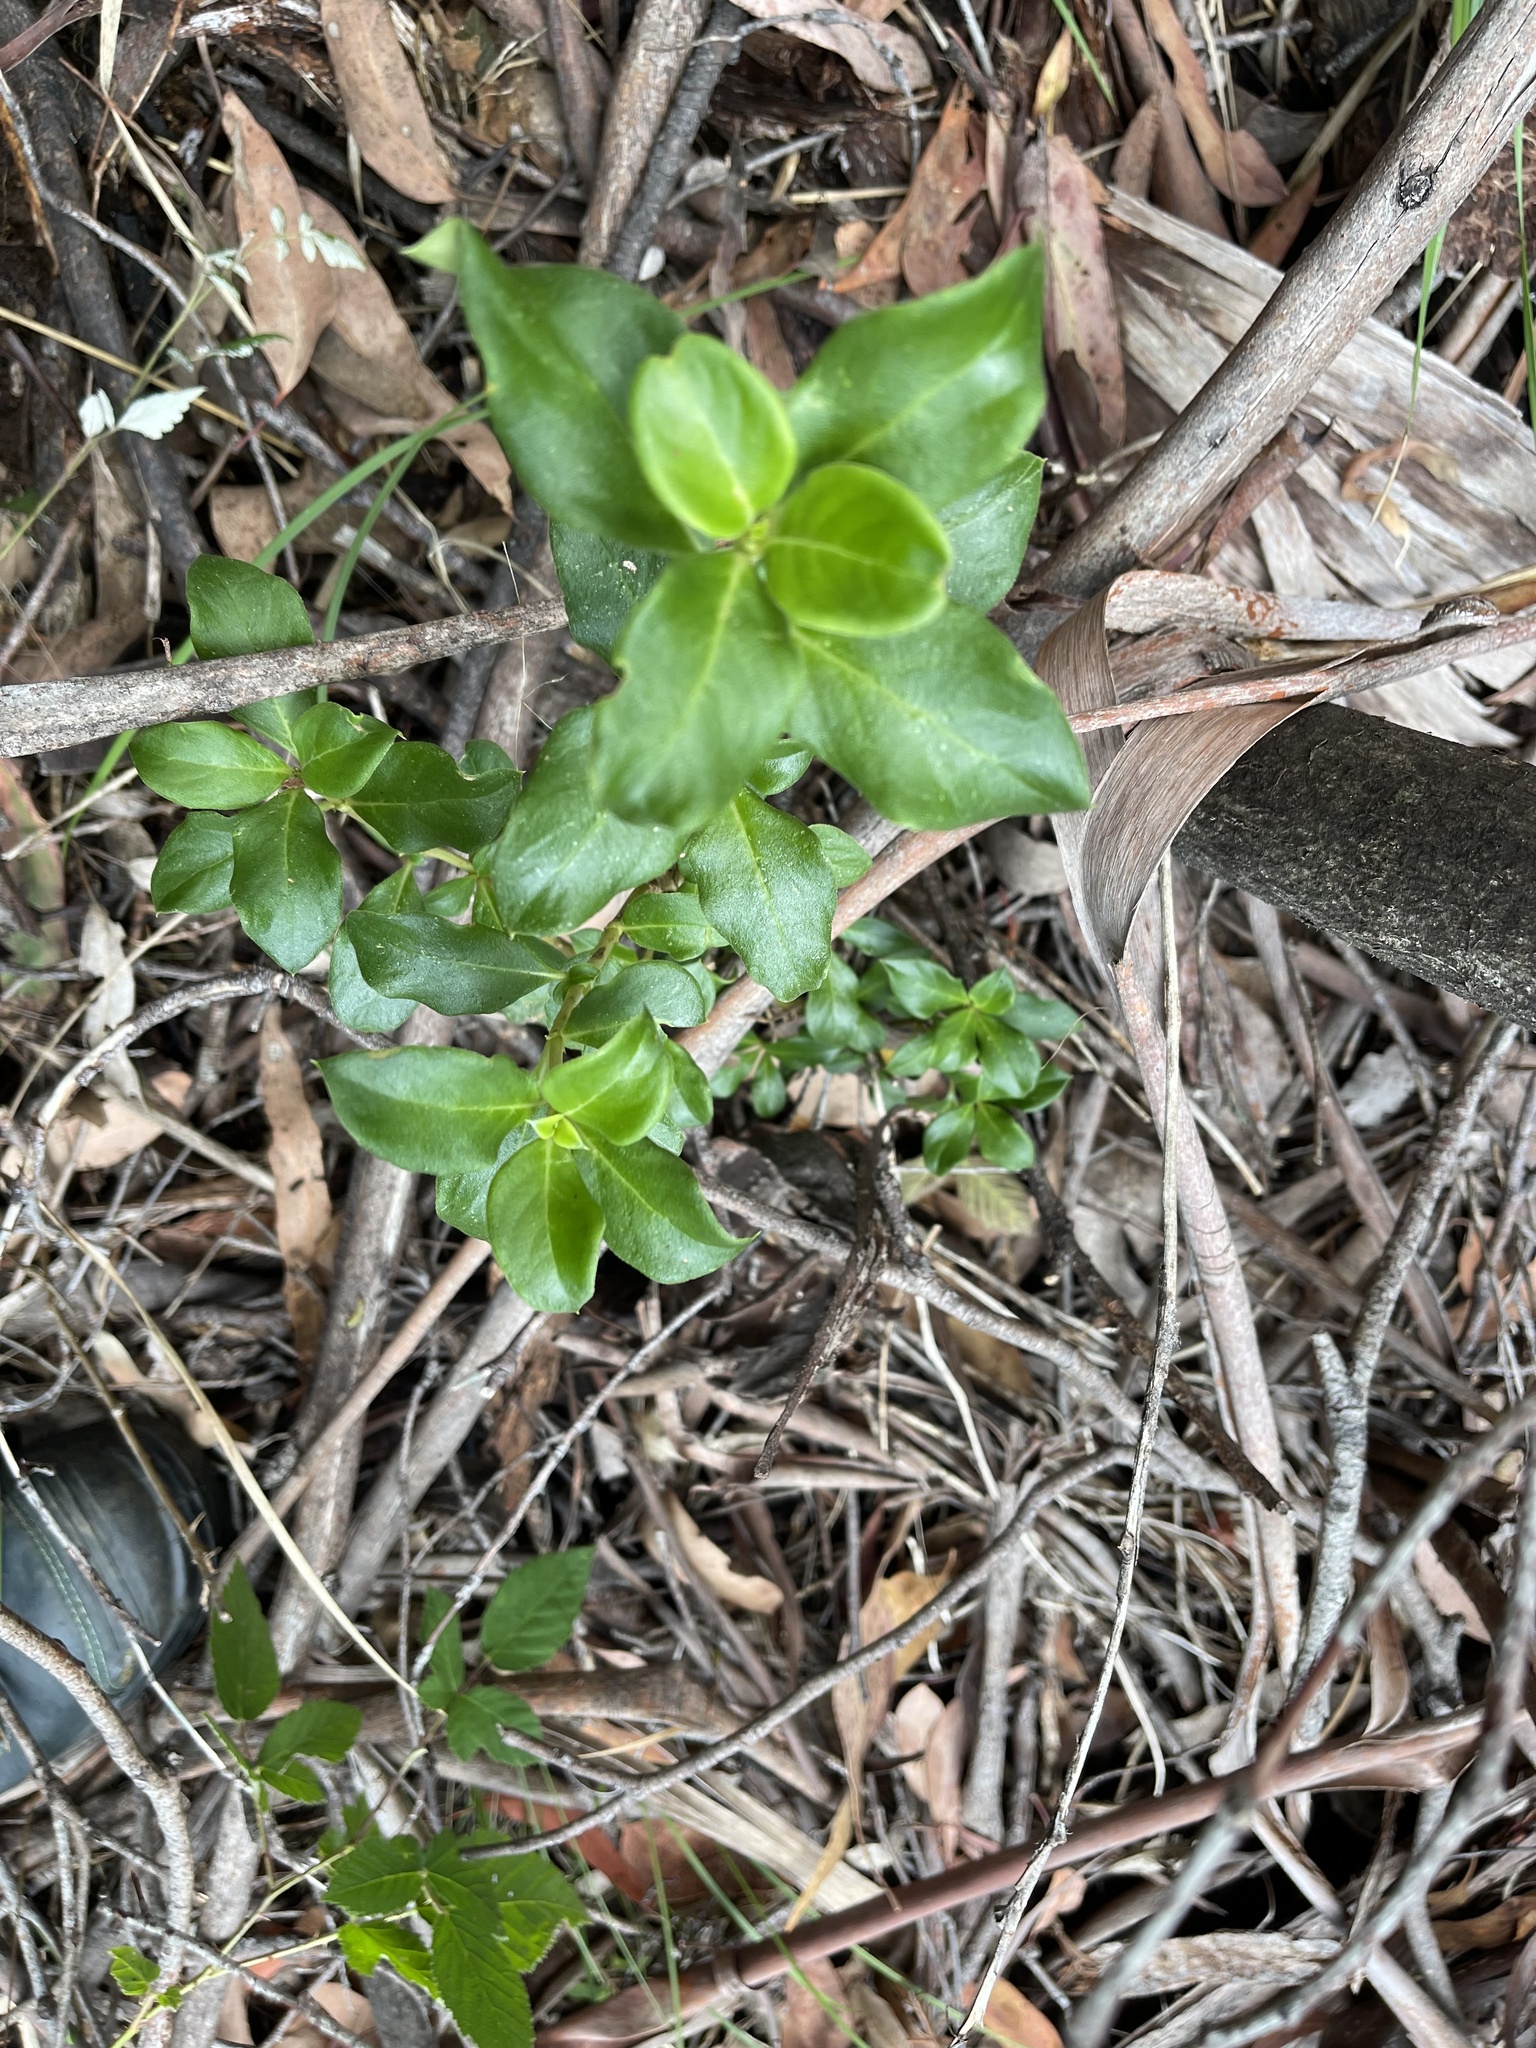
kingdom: Plantae
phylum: Tracheophyta
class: Magnoliopsida
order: Gentianales
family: Rubiaceae
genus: Coprosma
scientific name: Coprosma hirtella
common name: Rough coprosma
